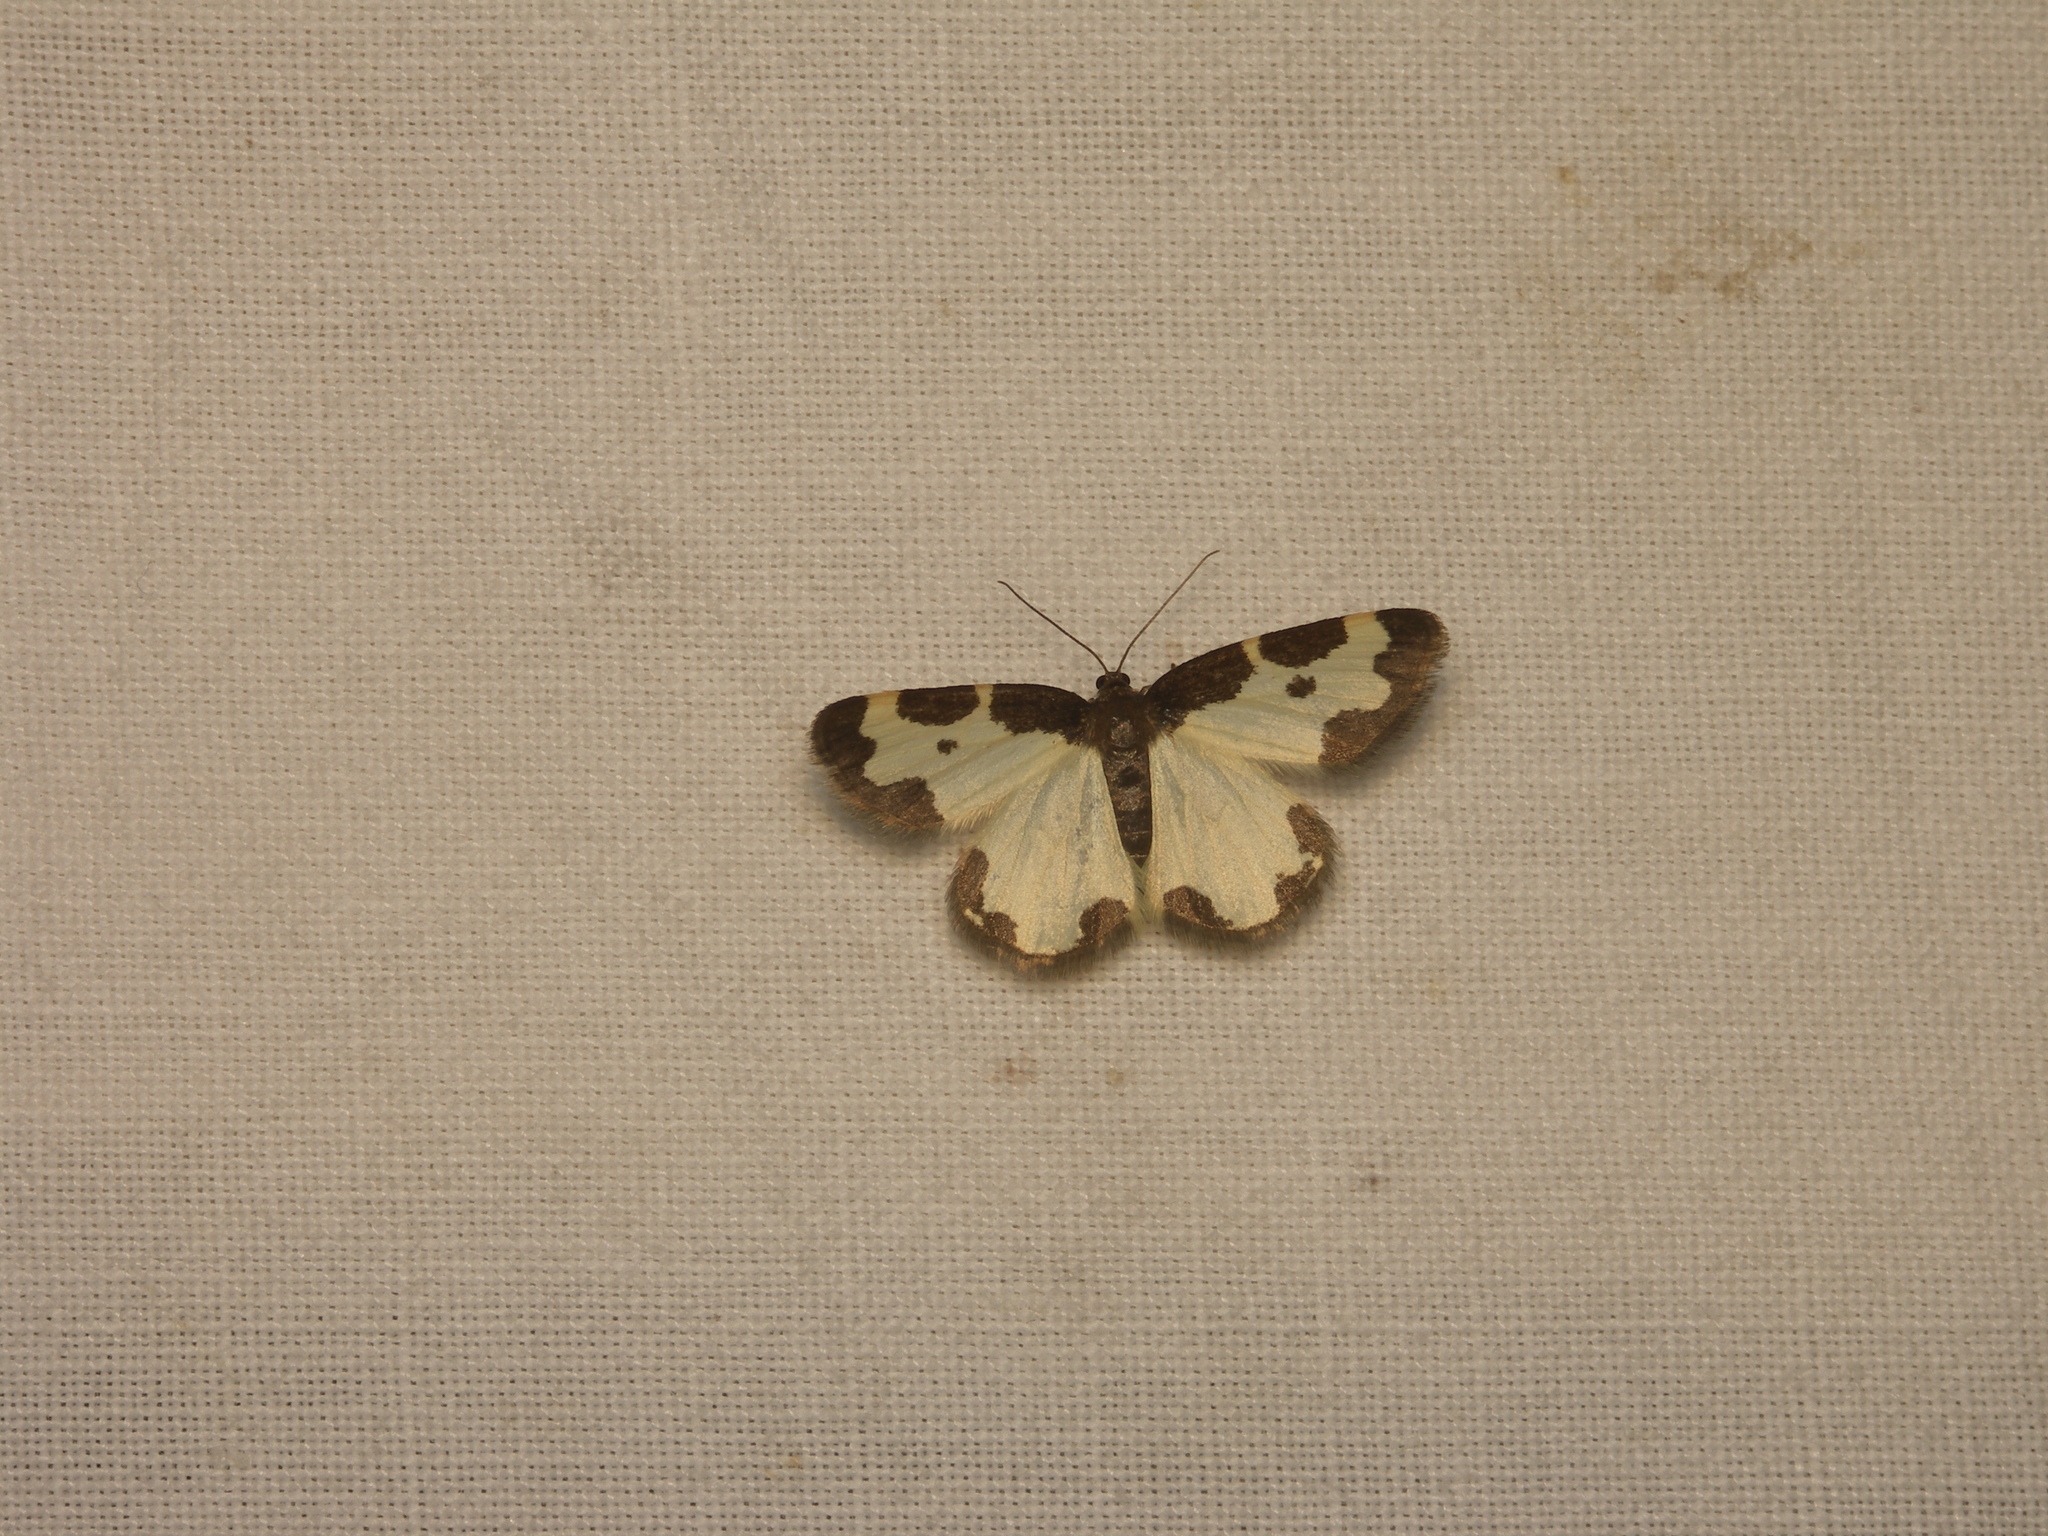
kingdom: Animalia
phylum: Arthropoda
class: Insecta
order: Lepidoptera
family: Geometridae
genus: Lomaspilis
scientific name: Lomaspilis marginata
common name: Clouded border
